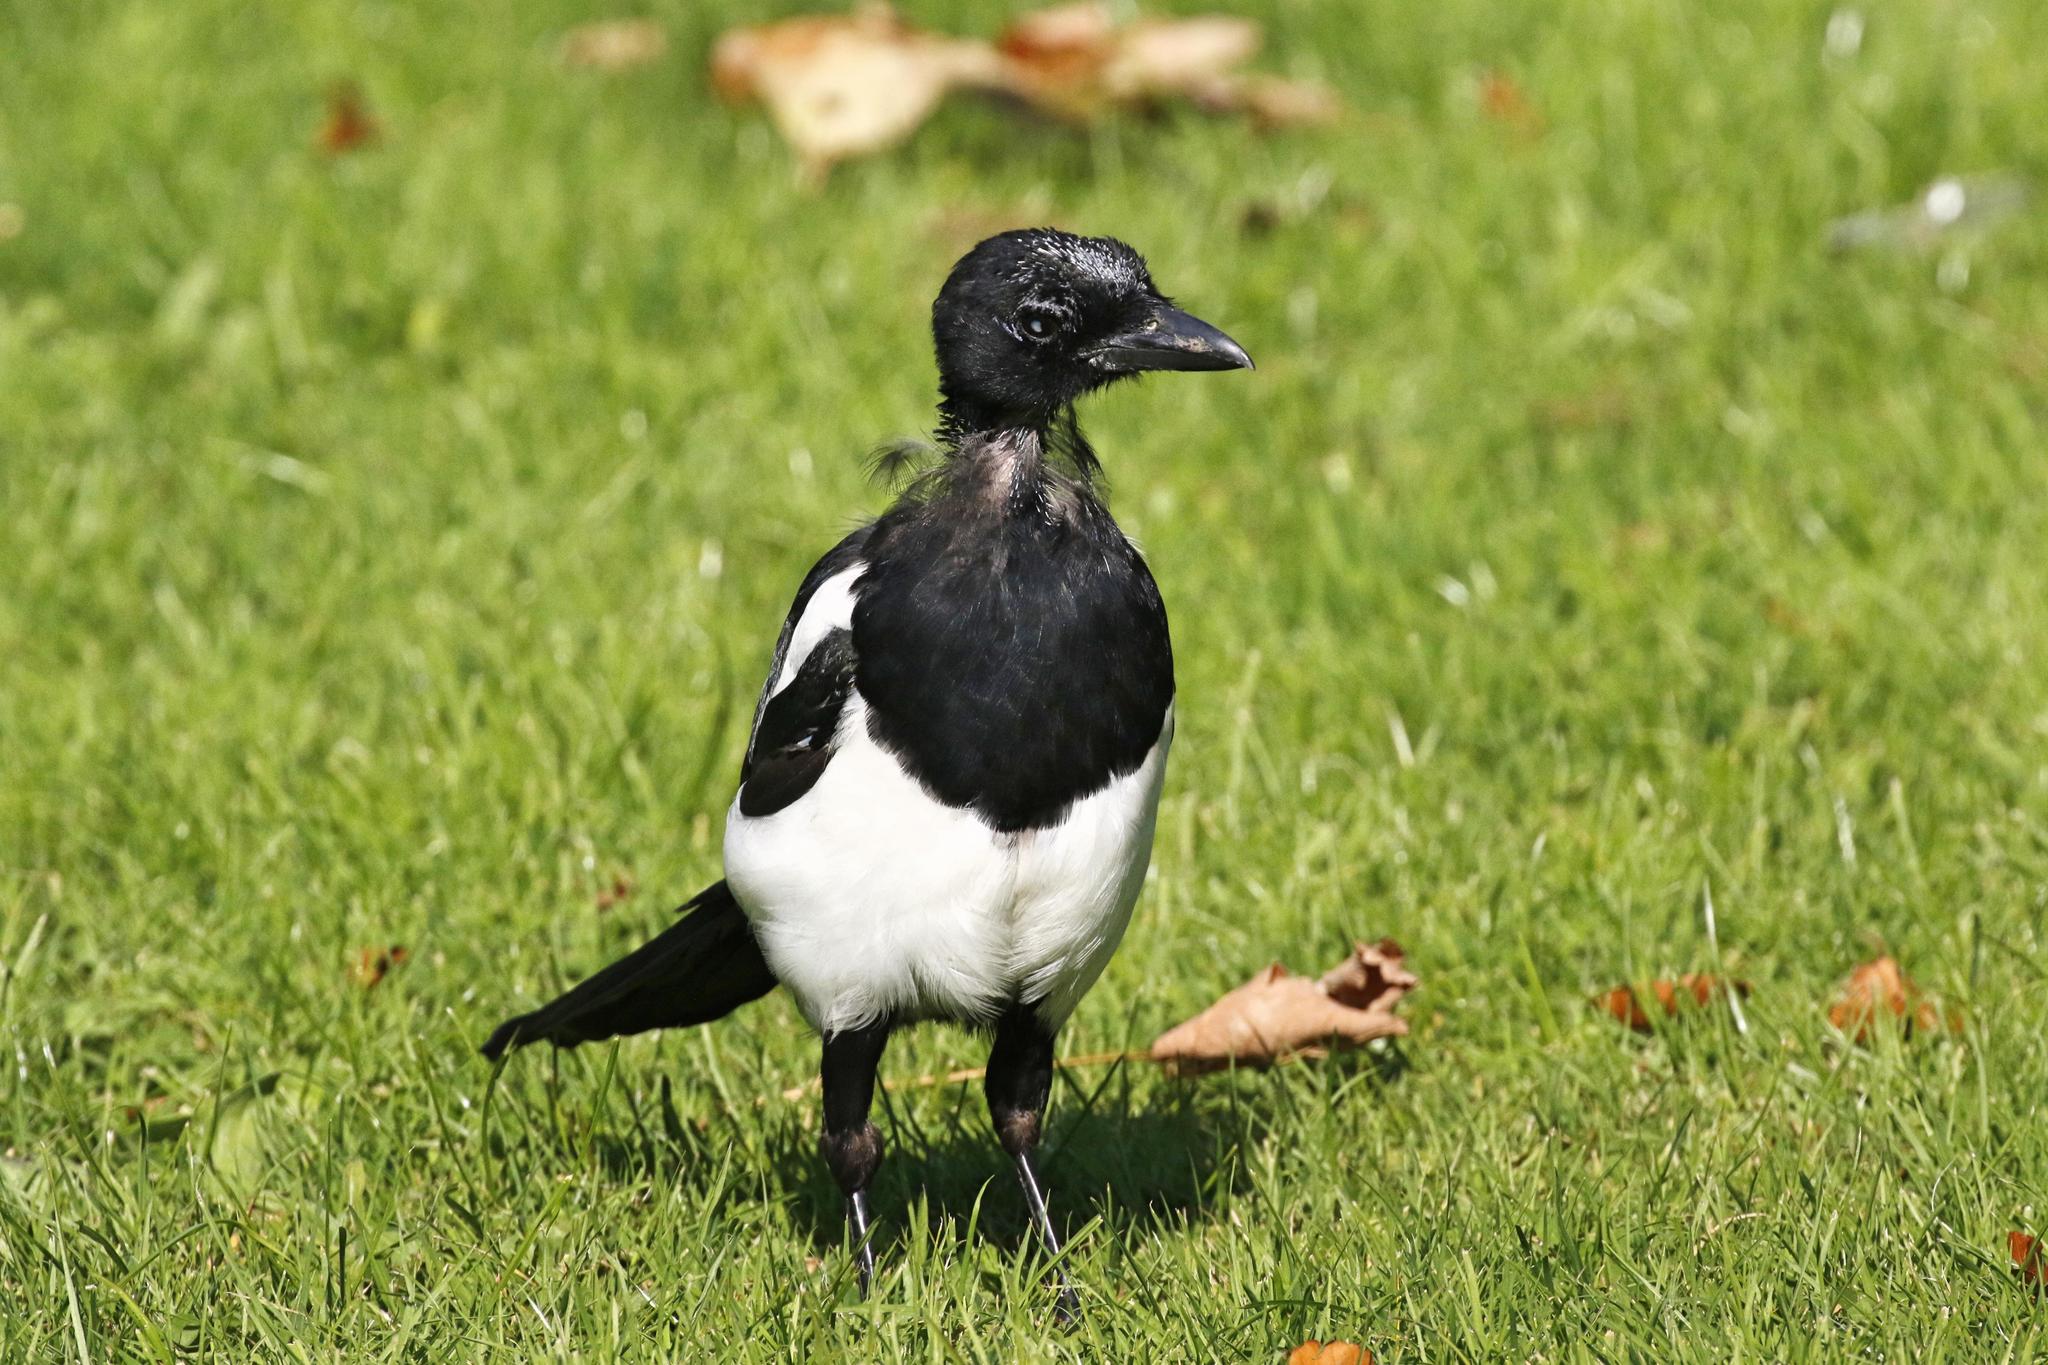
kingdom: Animalia
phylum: Chordata
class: Aves
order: Passeriformes
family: Corvidae
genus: Pica
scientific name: Pica pica
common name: Eurasian magpie
